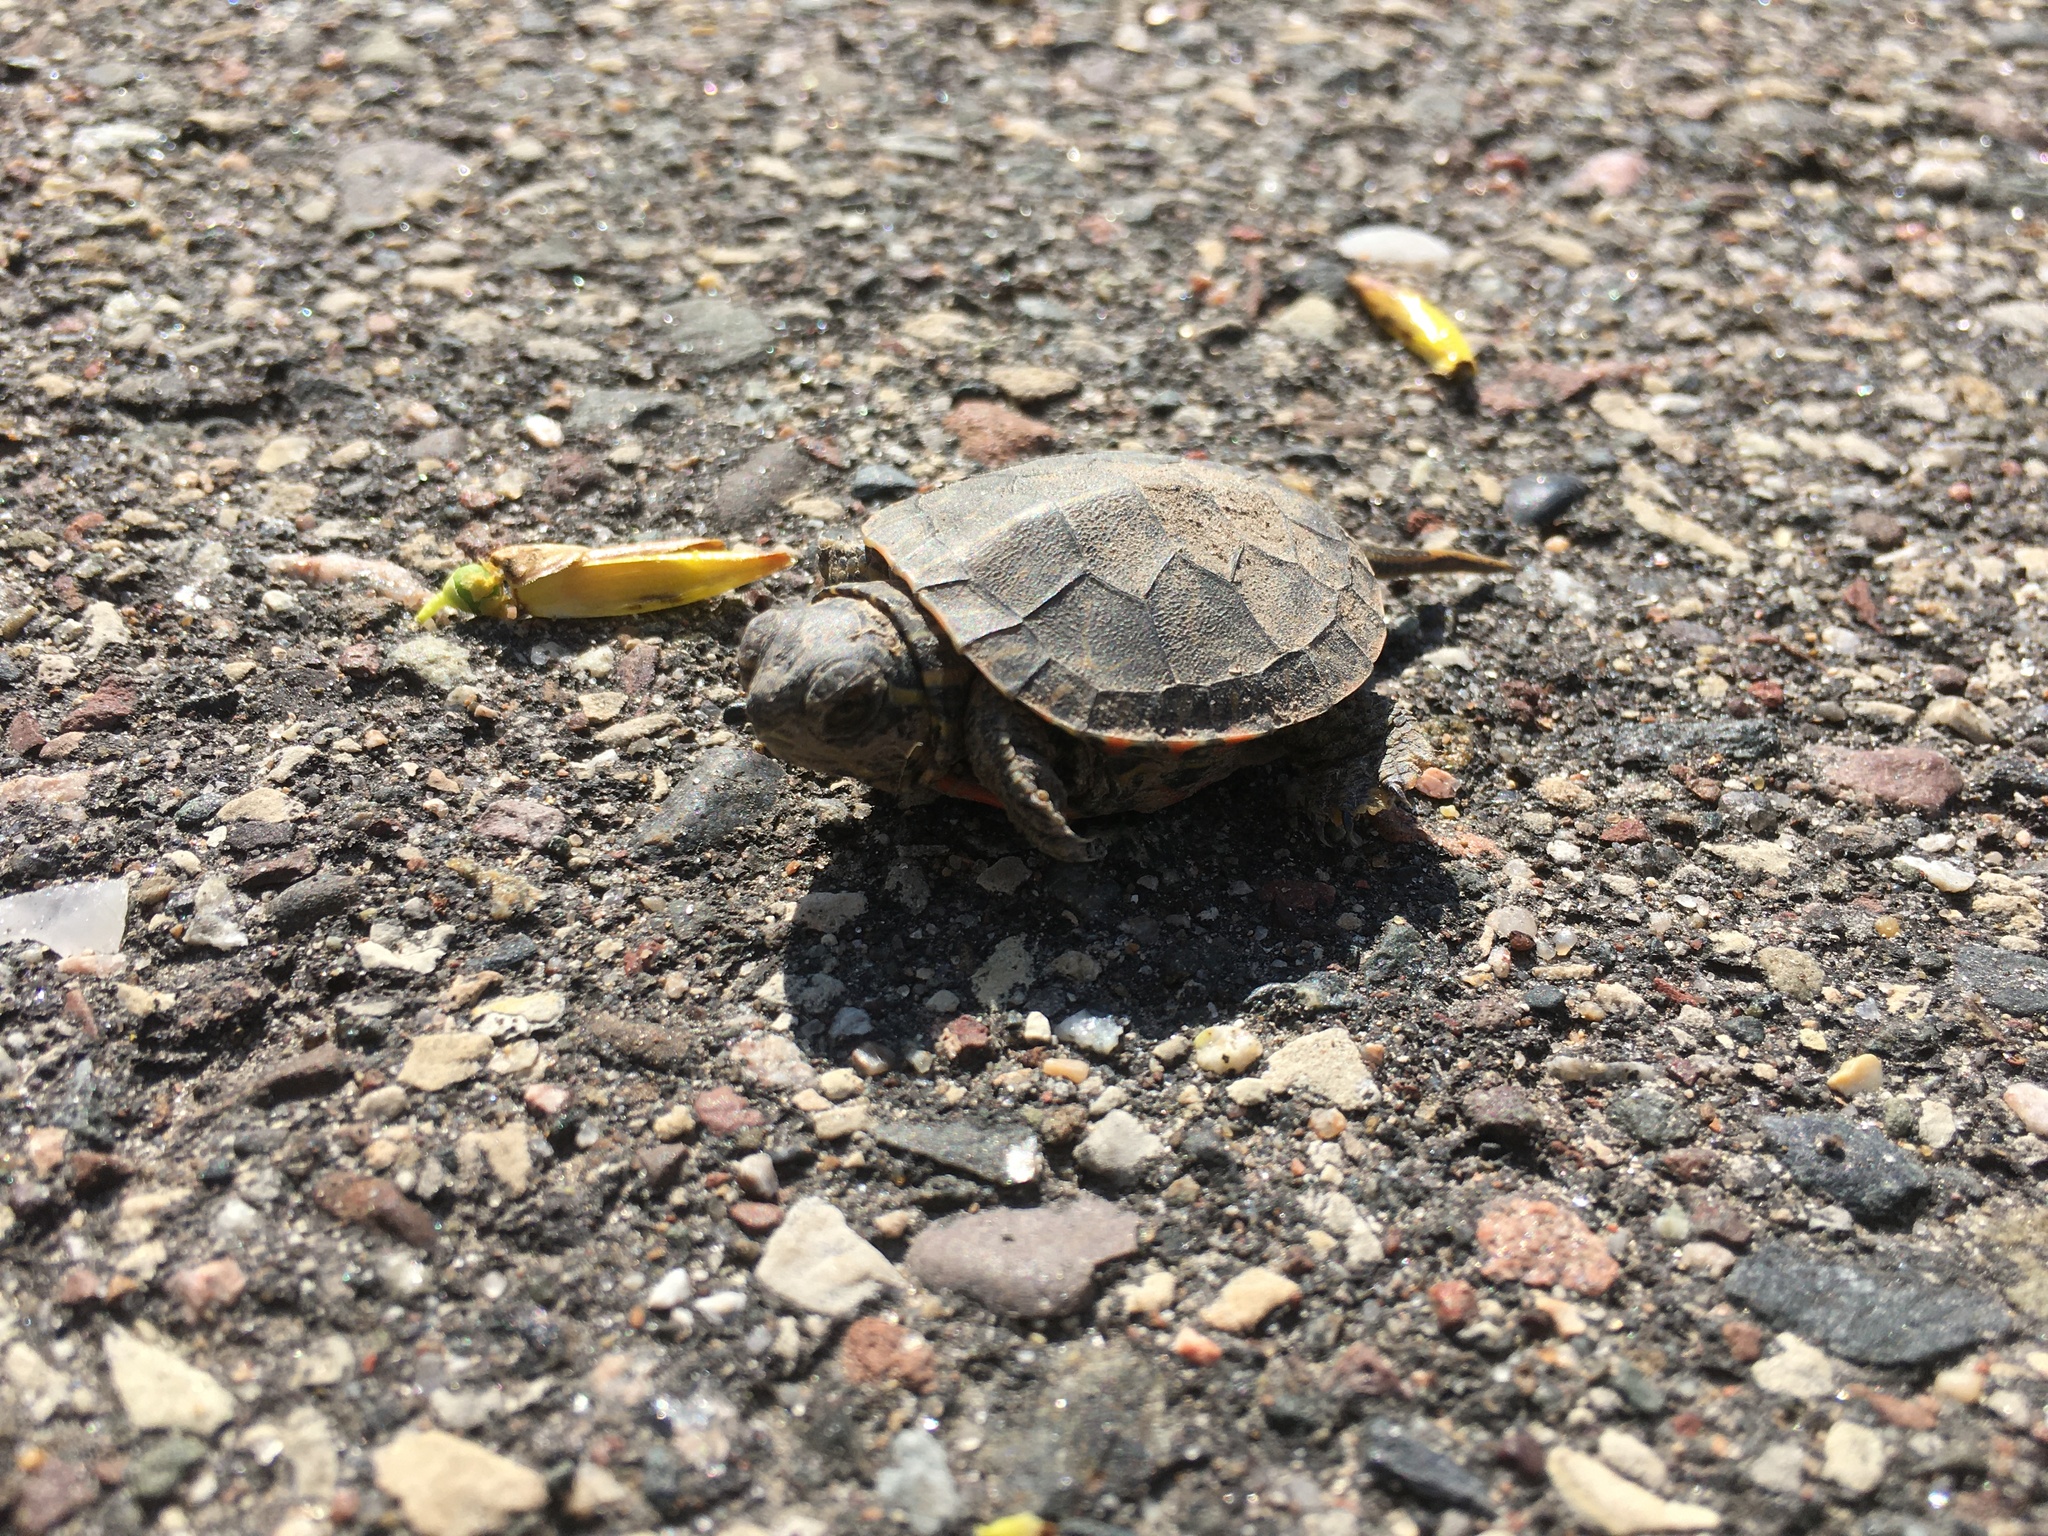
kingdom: Animalia
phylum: Chordata
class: Testudines
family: Emydidae
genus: Chrysemys
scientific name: Chrysemys picta
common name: Painted turtle
